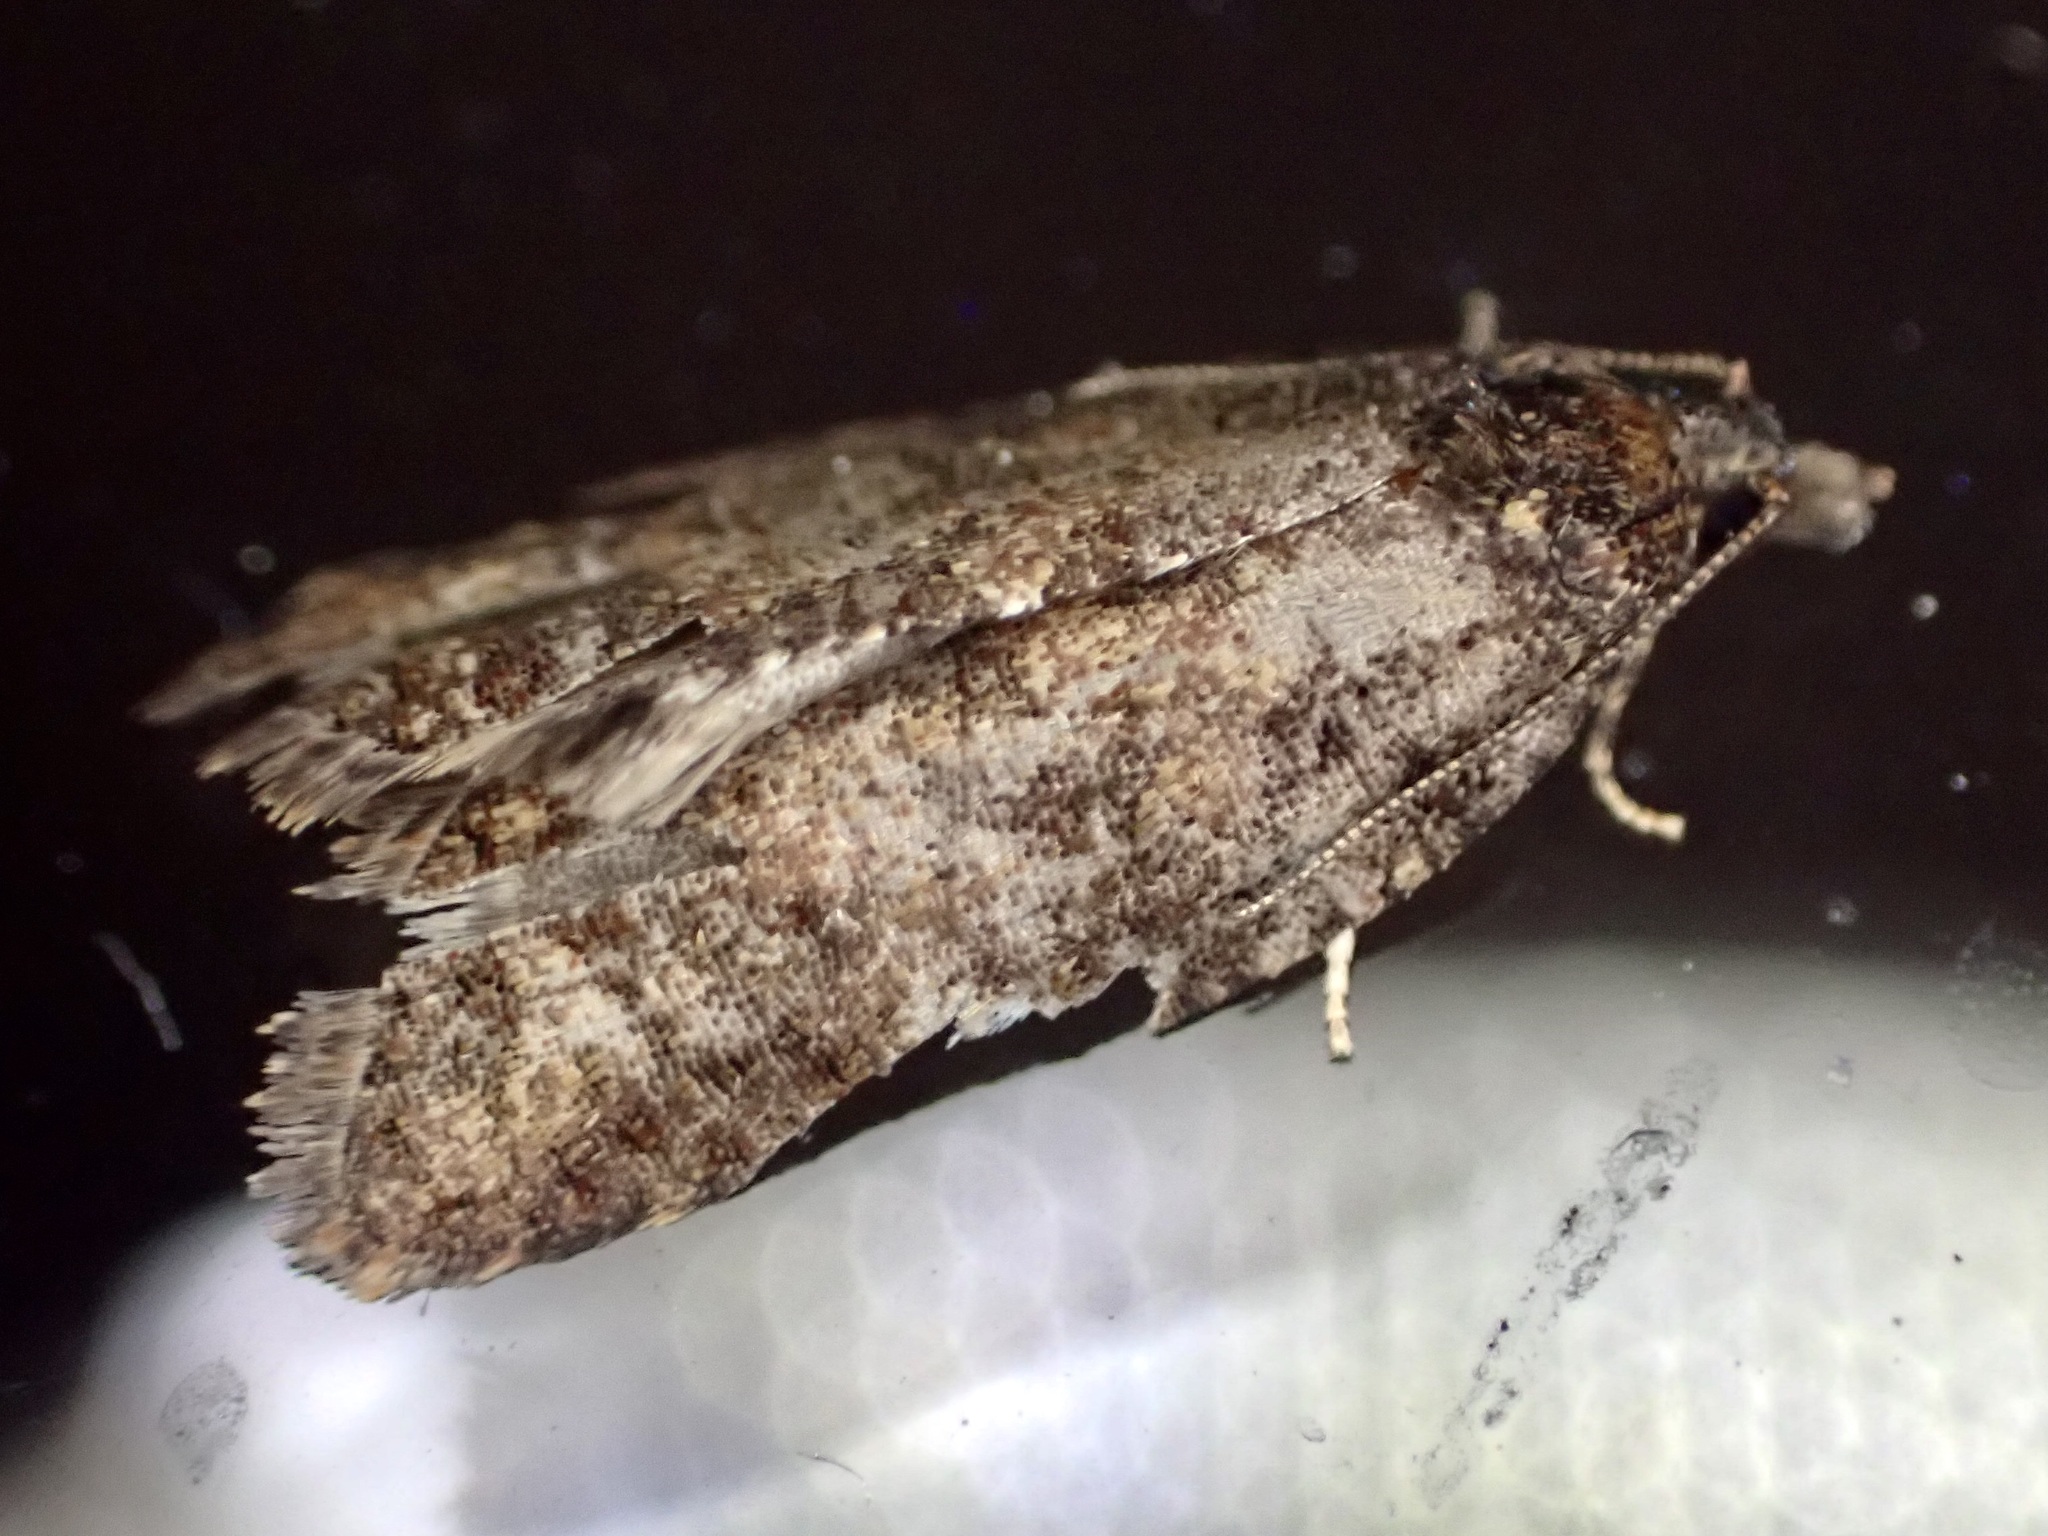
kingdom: Animalia
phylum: Arthropoda
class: Insecta
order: Lepidoptera
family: Tortricidae
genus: Capua
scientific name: Capua intractana
